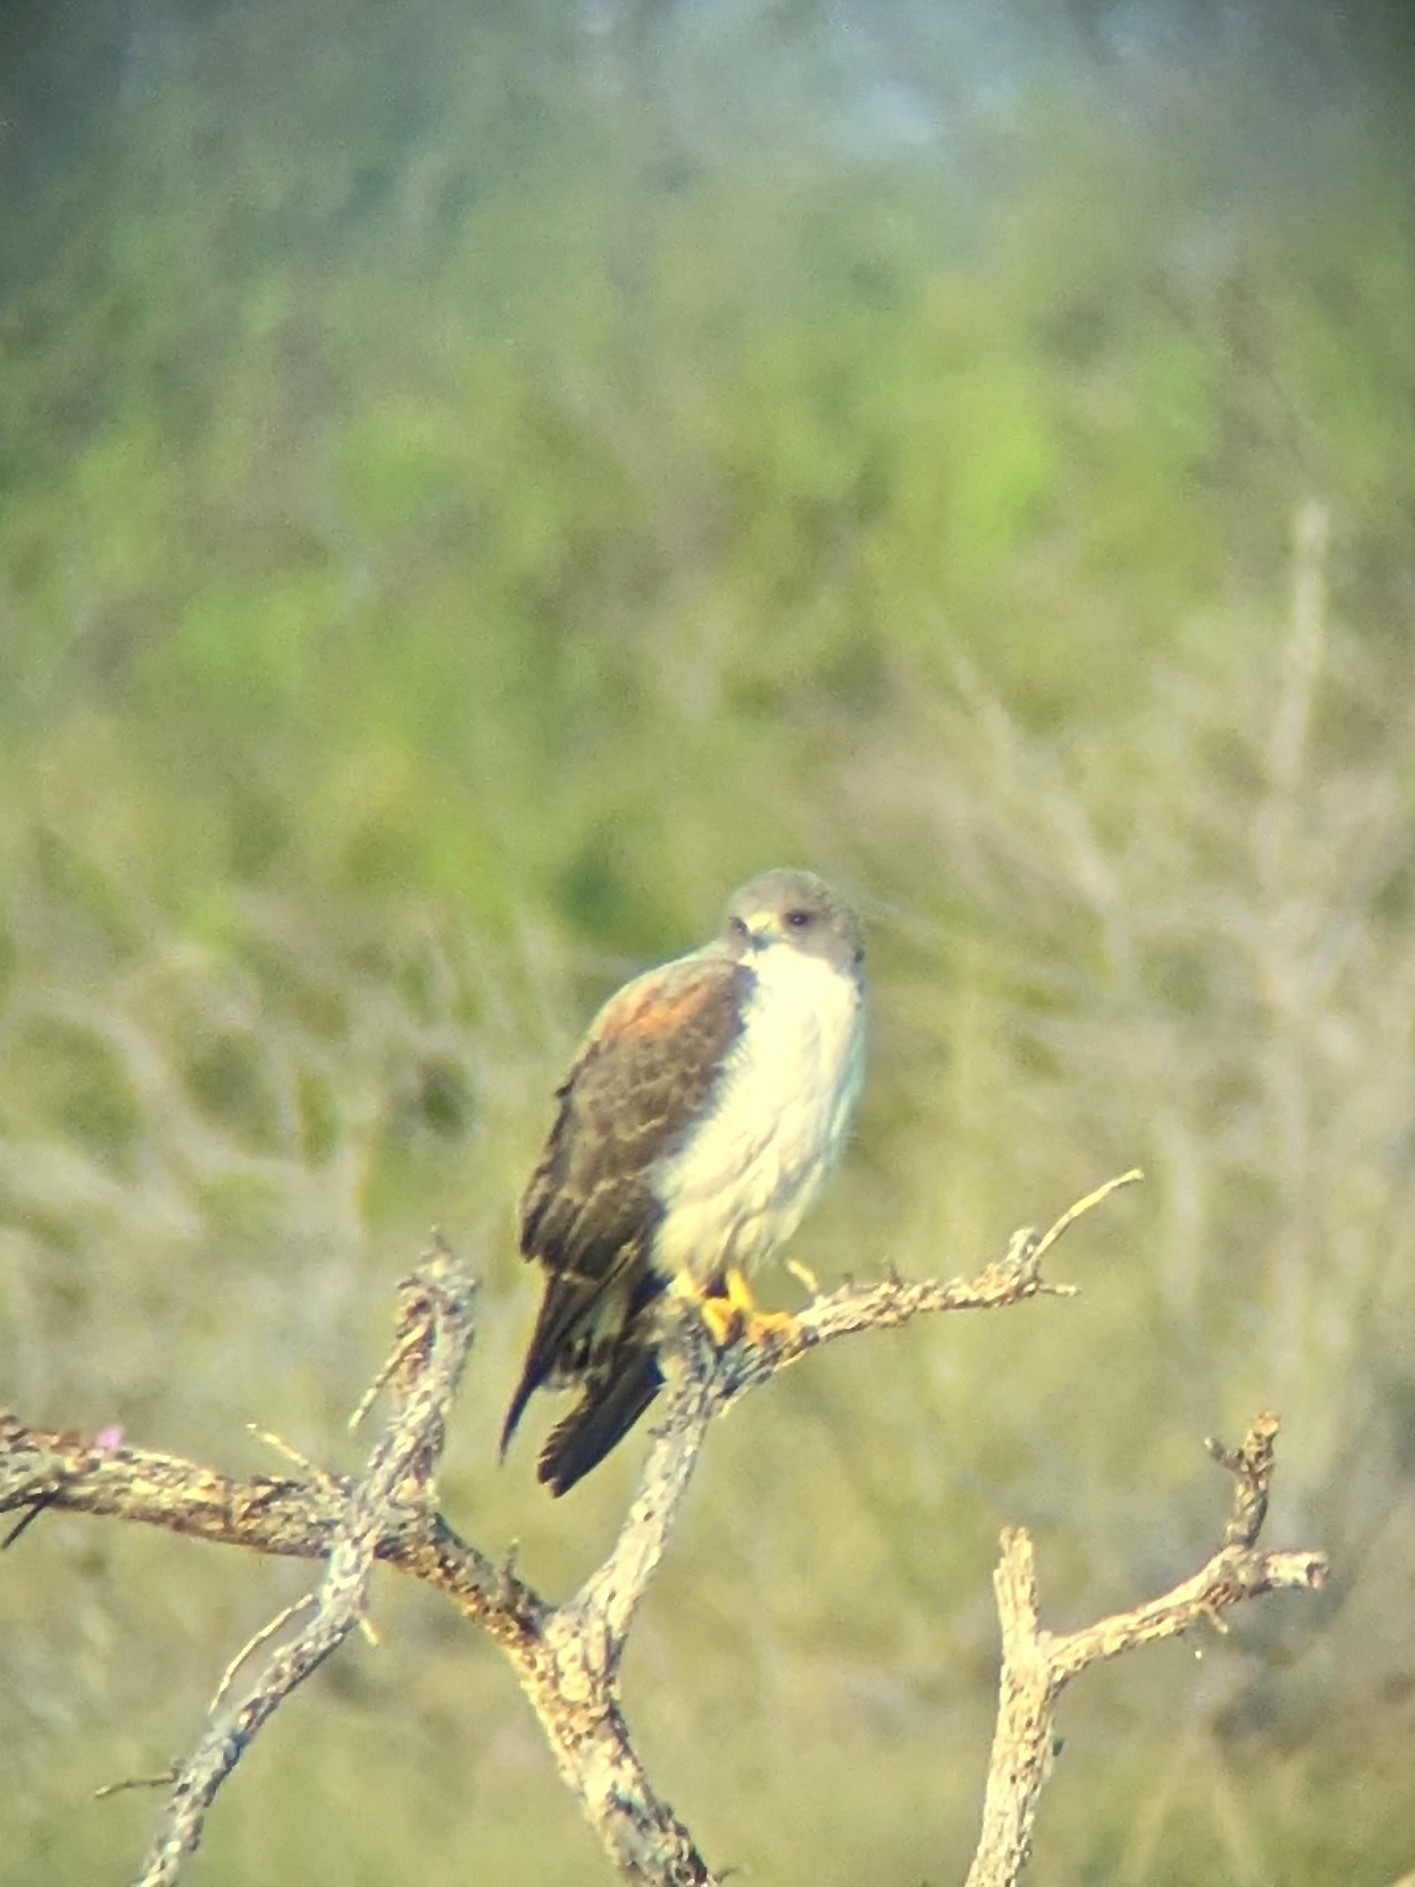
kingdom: Animalia
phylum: Chordata
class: Aves
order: Accipitriformes
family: Accipitridae
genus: Buteo
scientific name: Buteo albicaudatus
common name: White-tailed hawk
